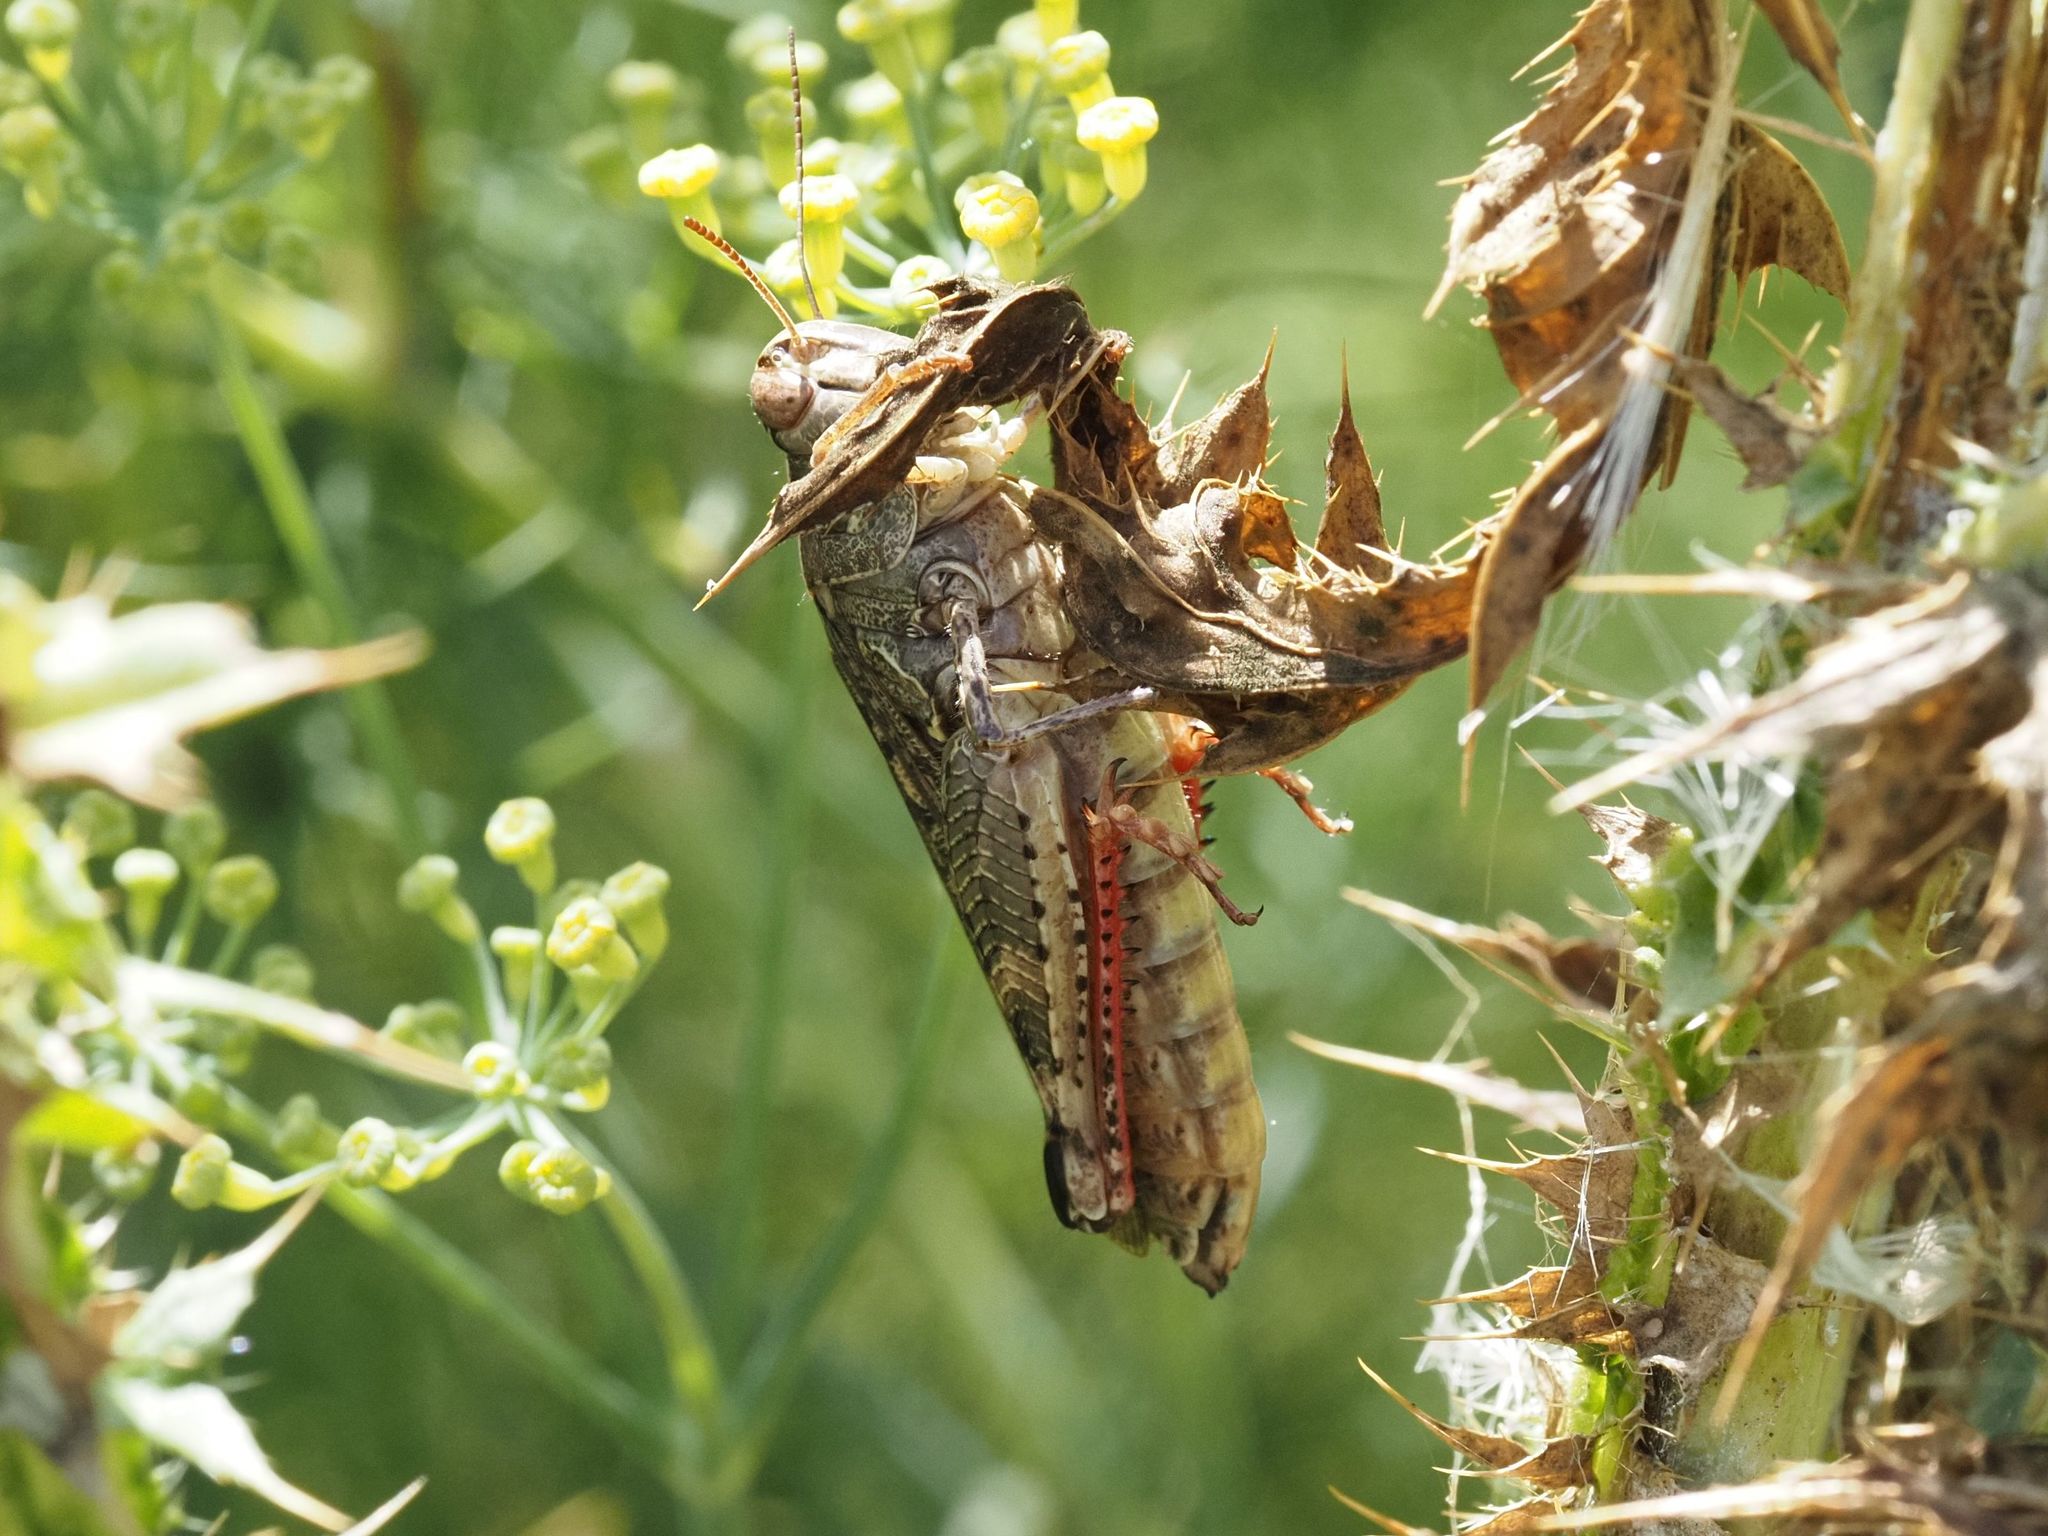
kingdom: Animalia
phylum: Arthropoda
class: Insecta
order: Orthoptera
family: Acrididae
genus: Calliptamus
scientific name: Calliptamus italicus
